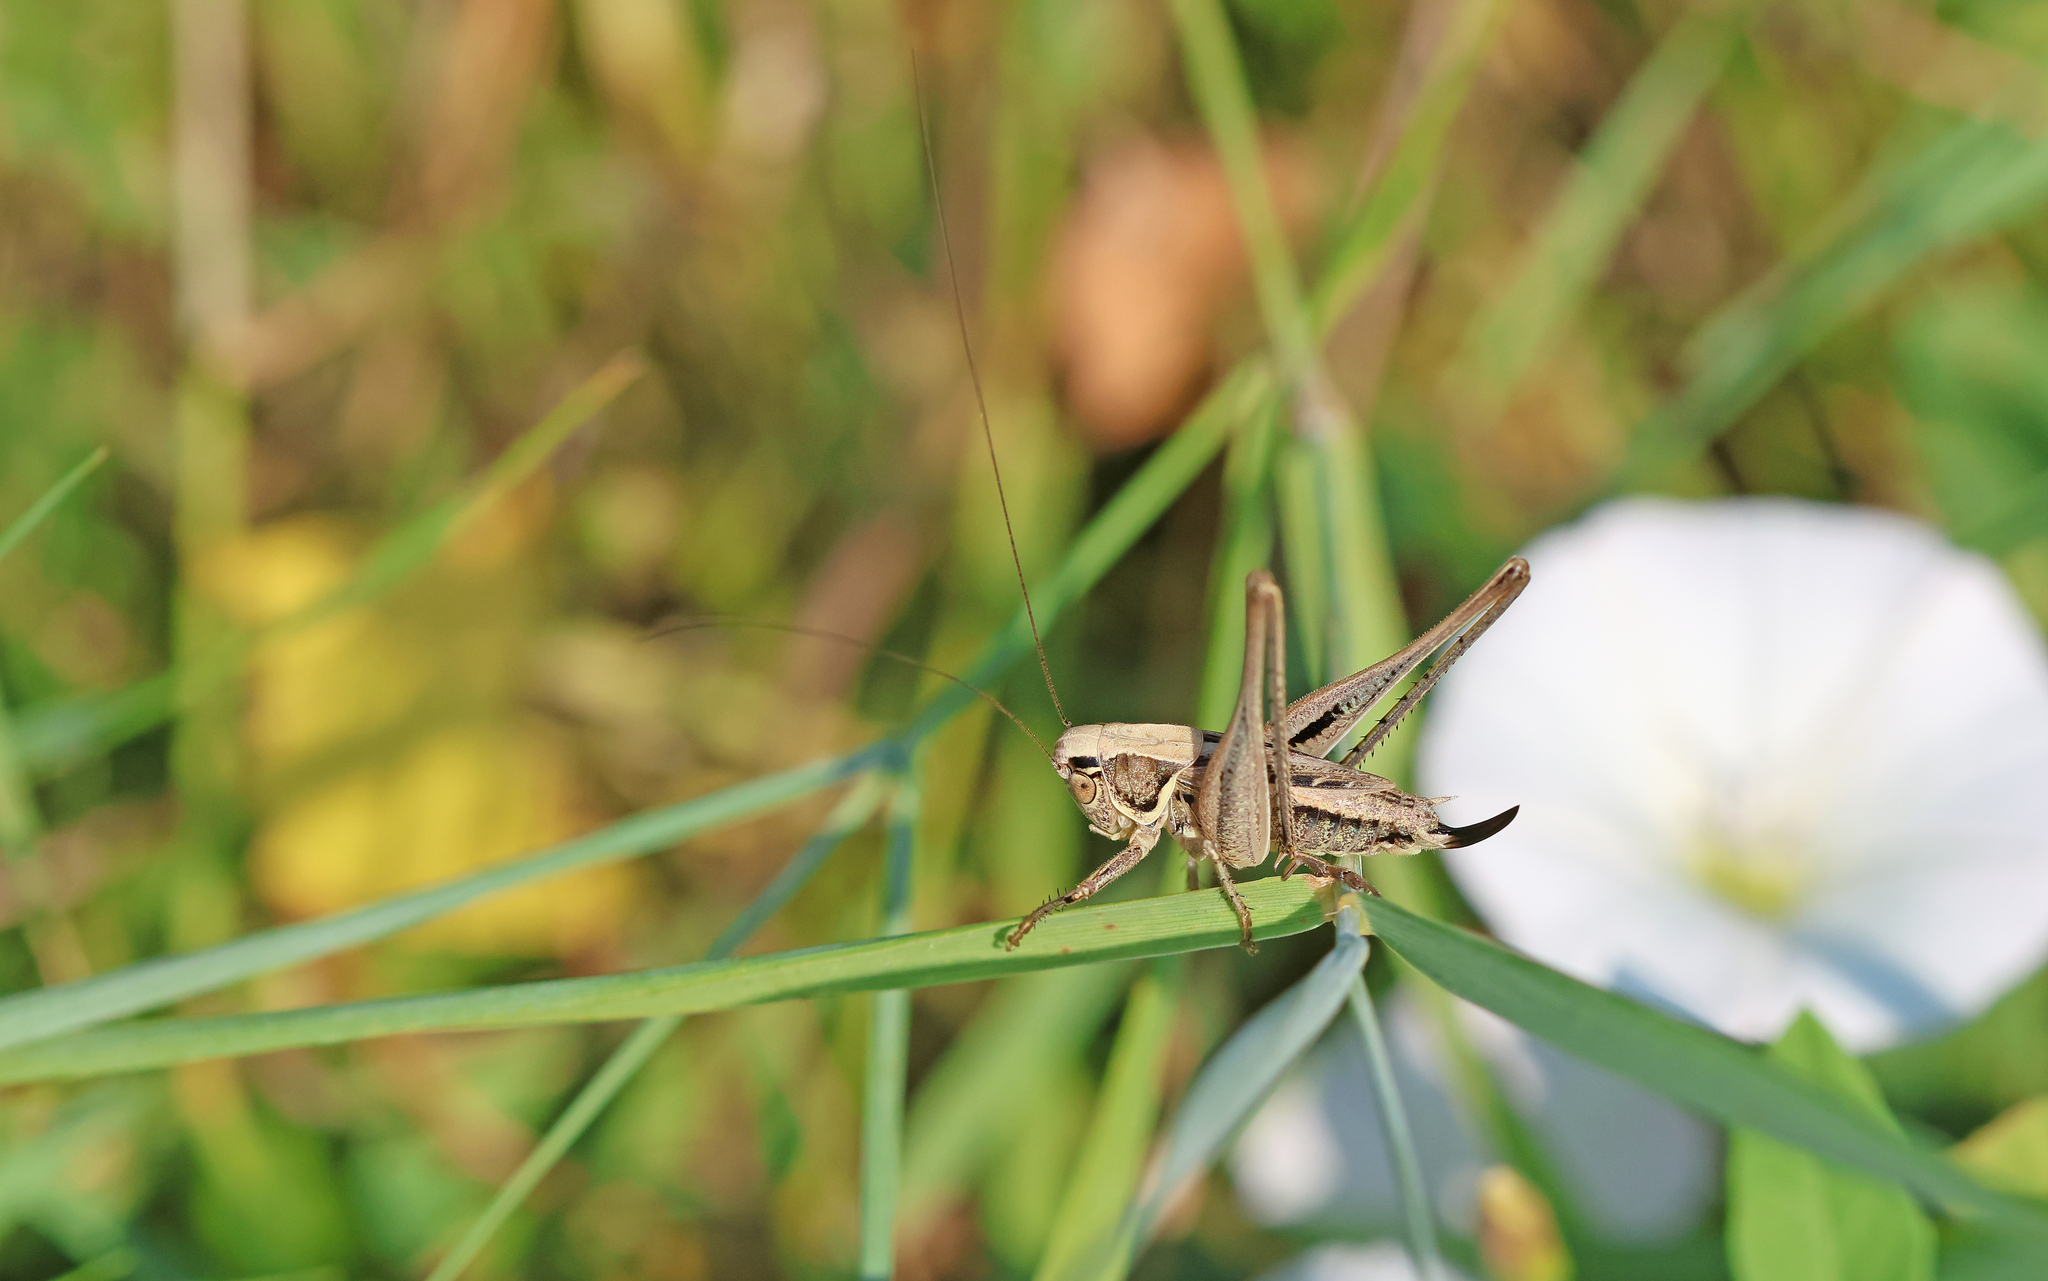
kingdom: Animalia
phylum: Arthropoda
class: Insecta
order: Orthoptera
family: Tettigoniidae
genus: Tessellana
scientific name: Tessellana veyseli
